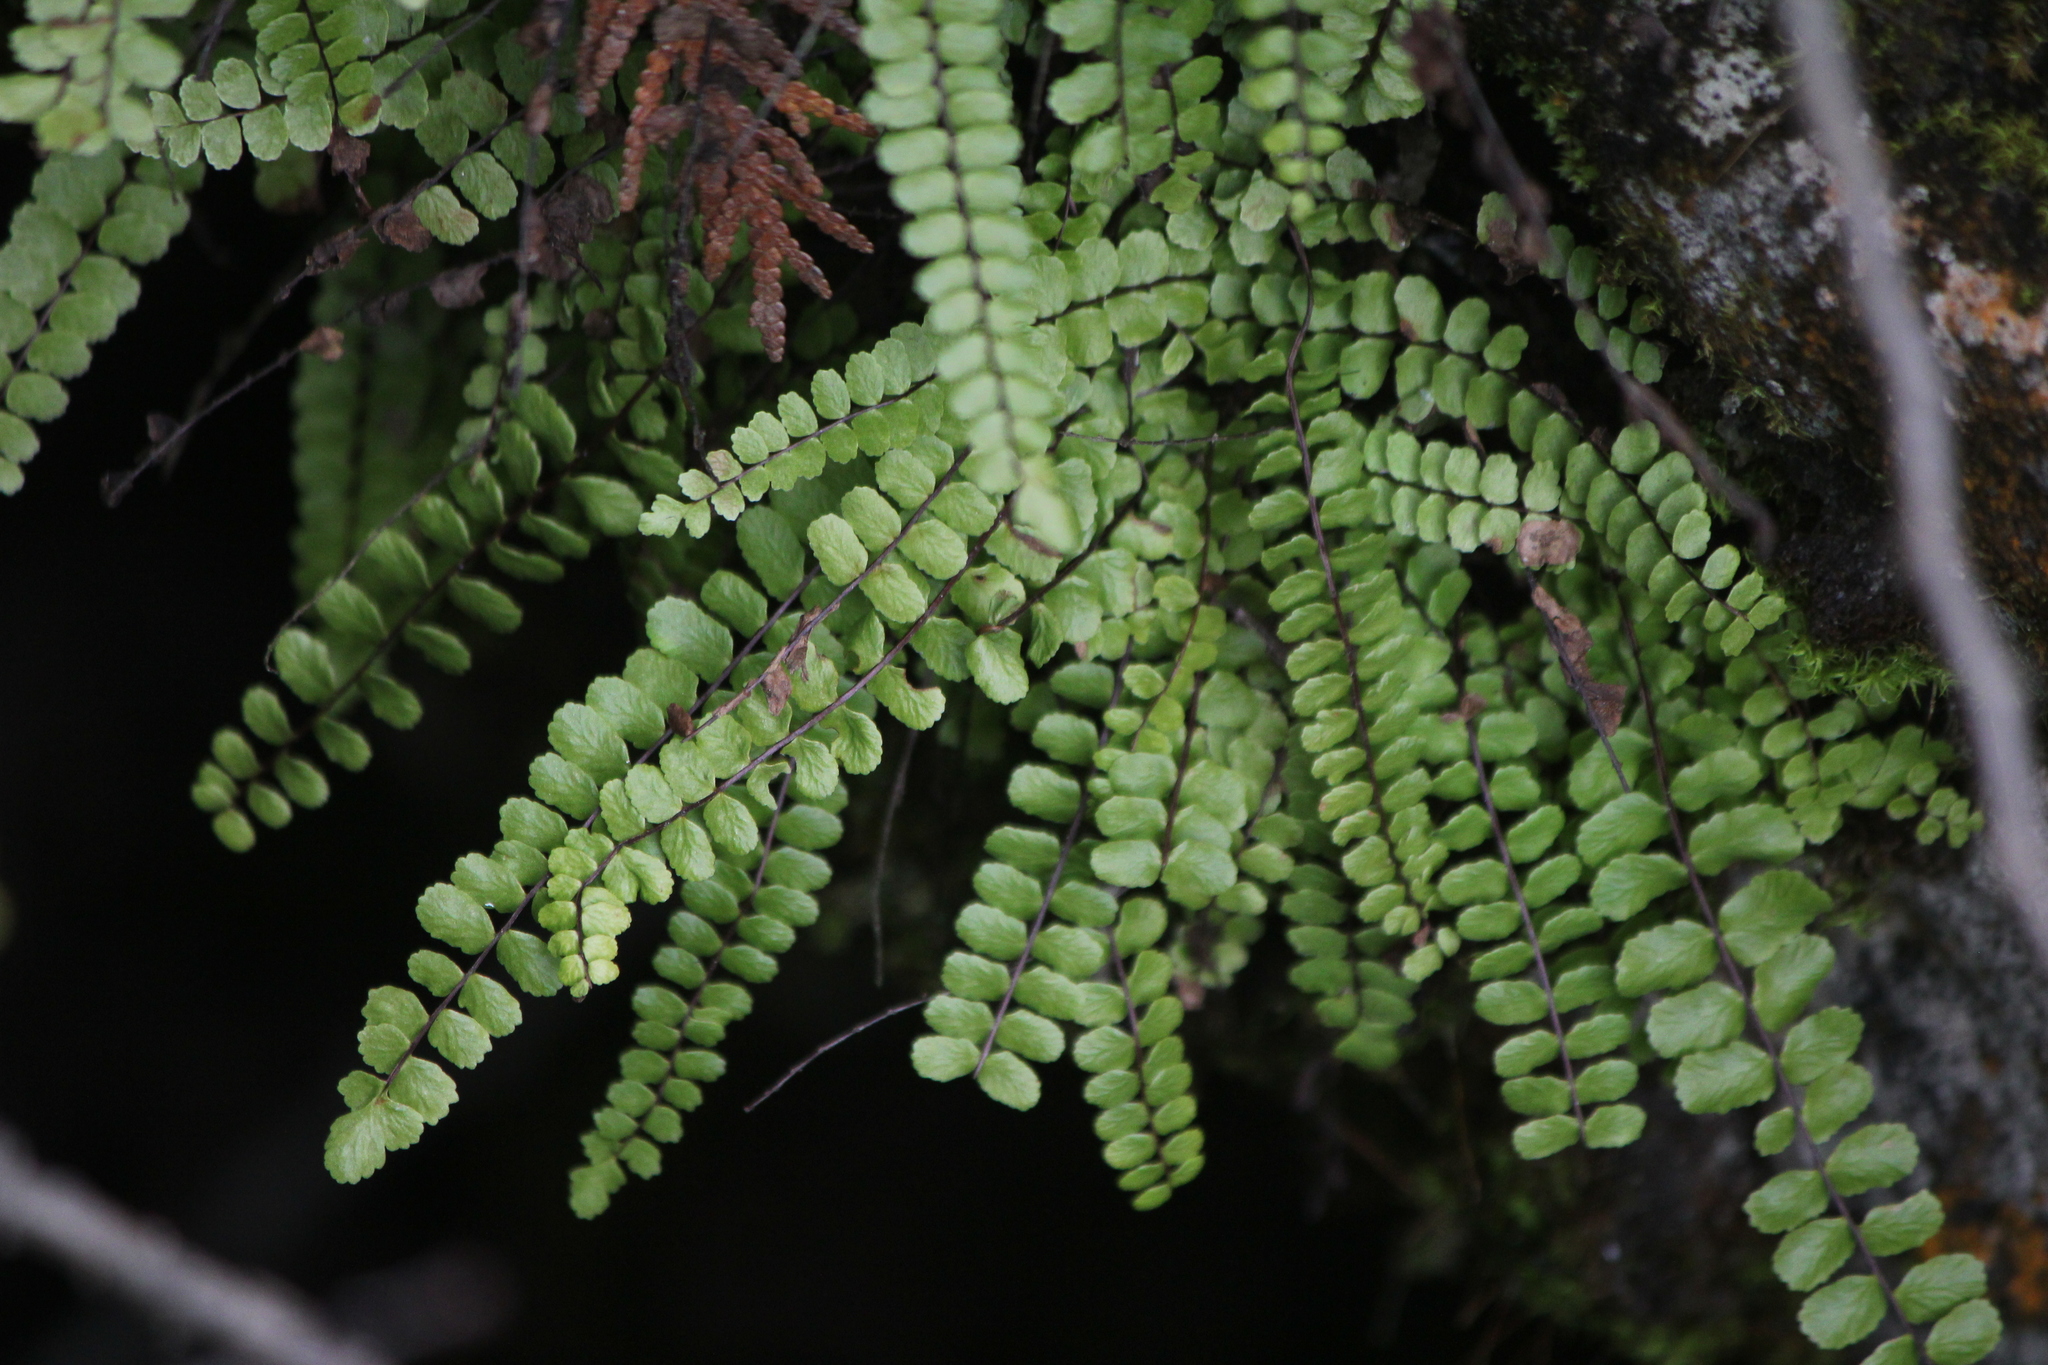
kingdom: Plantae
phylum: Tracheophyta
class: Polypodiopsida
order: Polypodiales
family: Aspleniaceae
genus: Asplenium
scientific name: Asplenium trichomanes
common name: Maidenhair spleenwort
